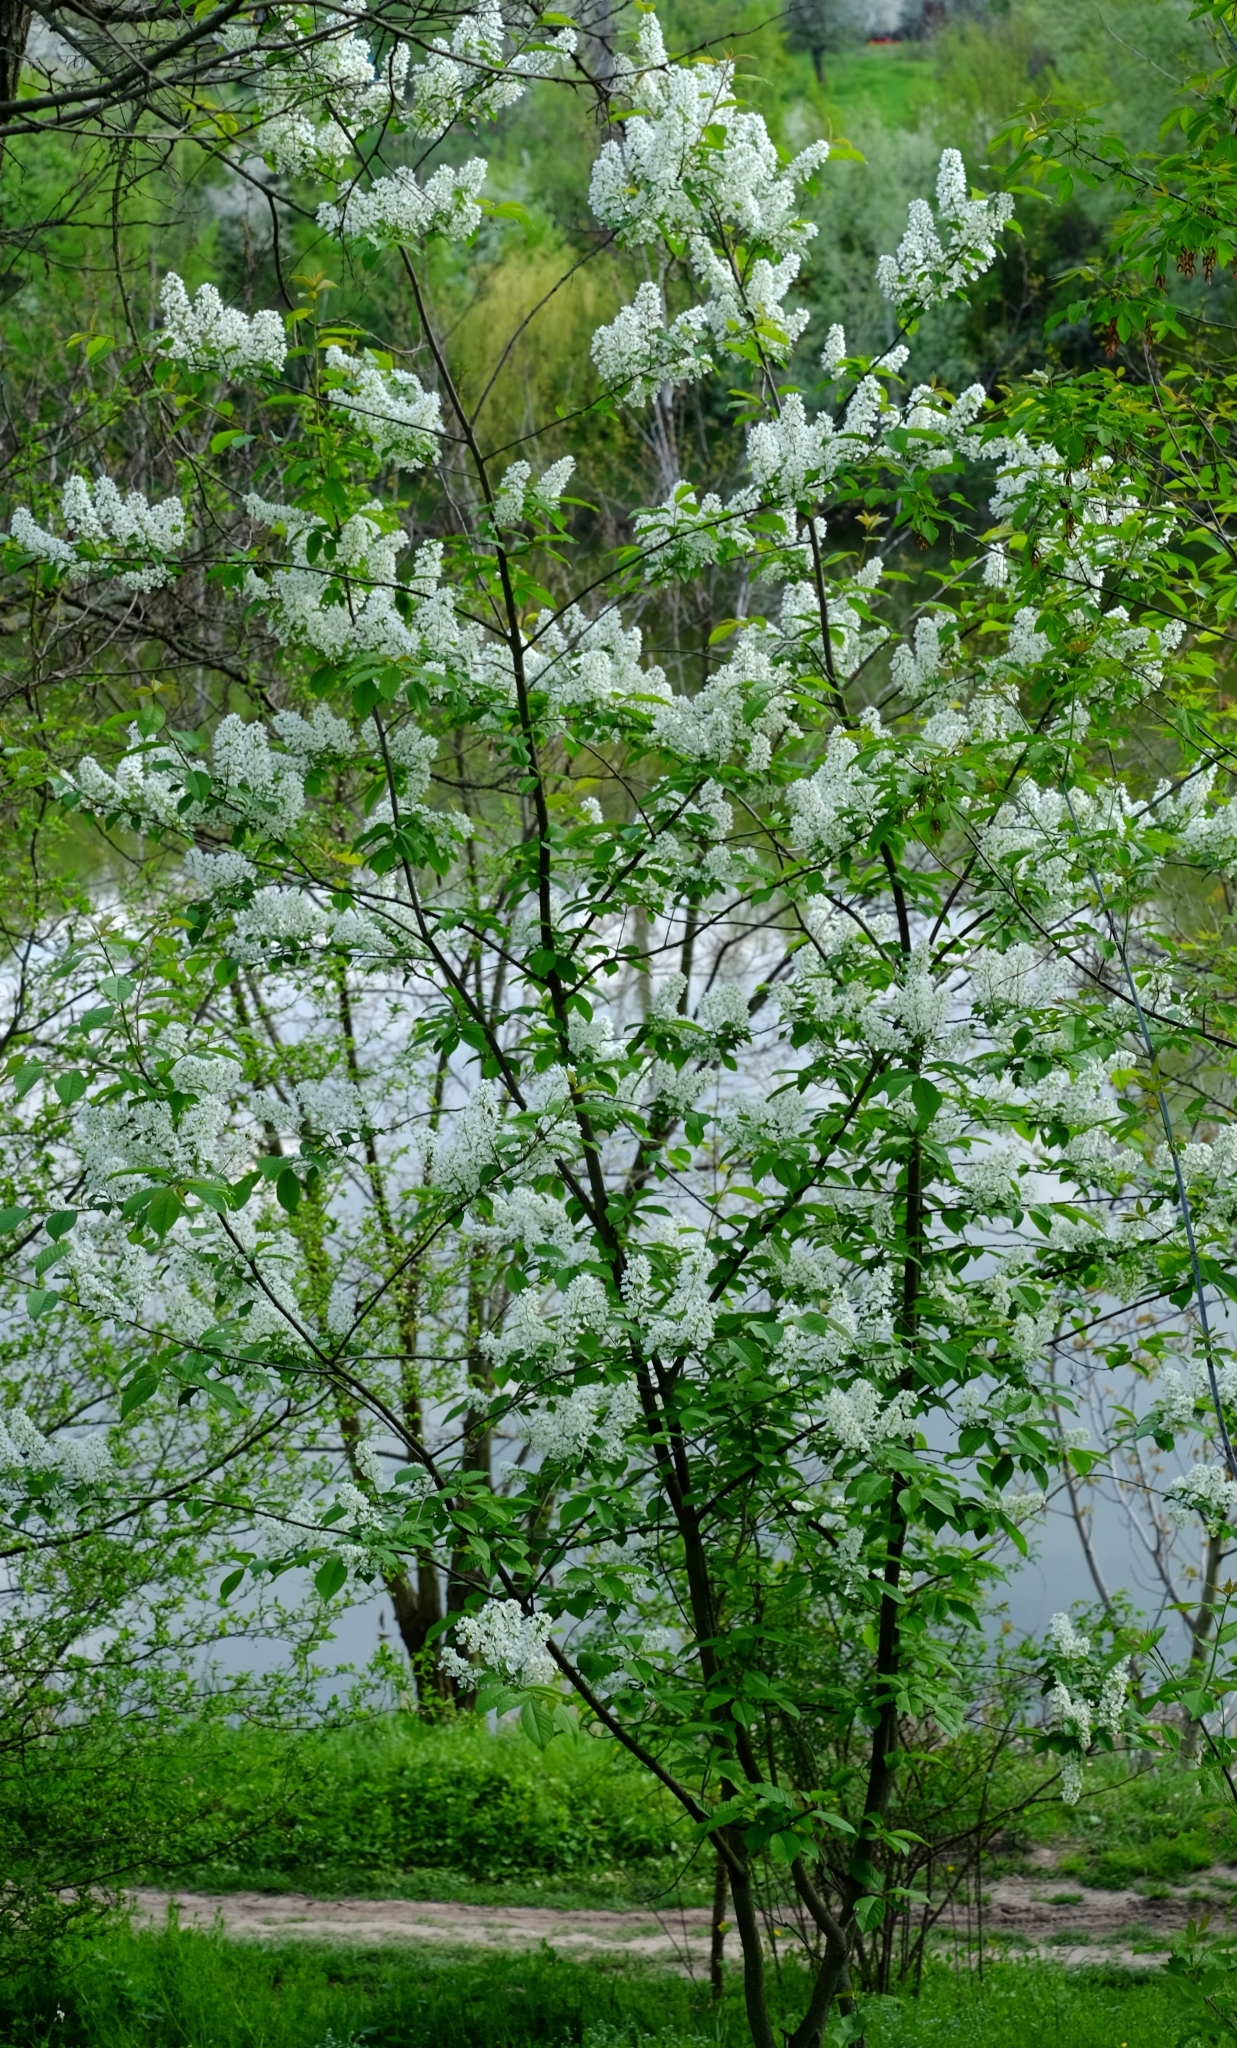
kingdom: Plantae
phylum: Tracheophyta
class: Magnoliopsida
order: Rosales
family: Rosaceae
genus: Prunus
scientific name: Prunus padus
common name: Bird cherry
